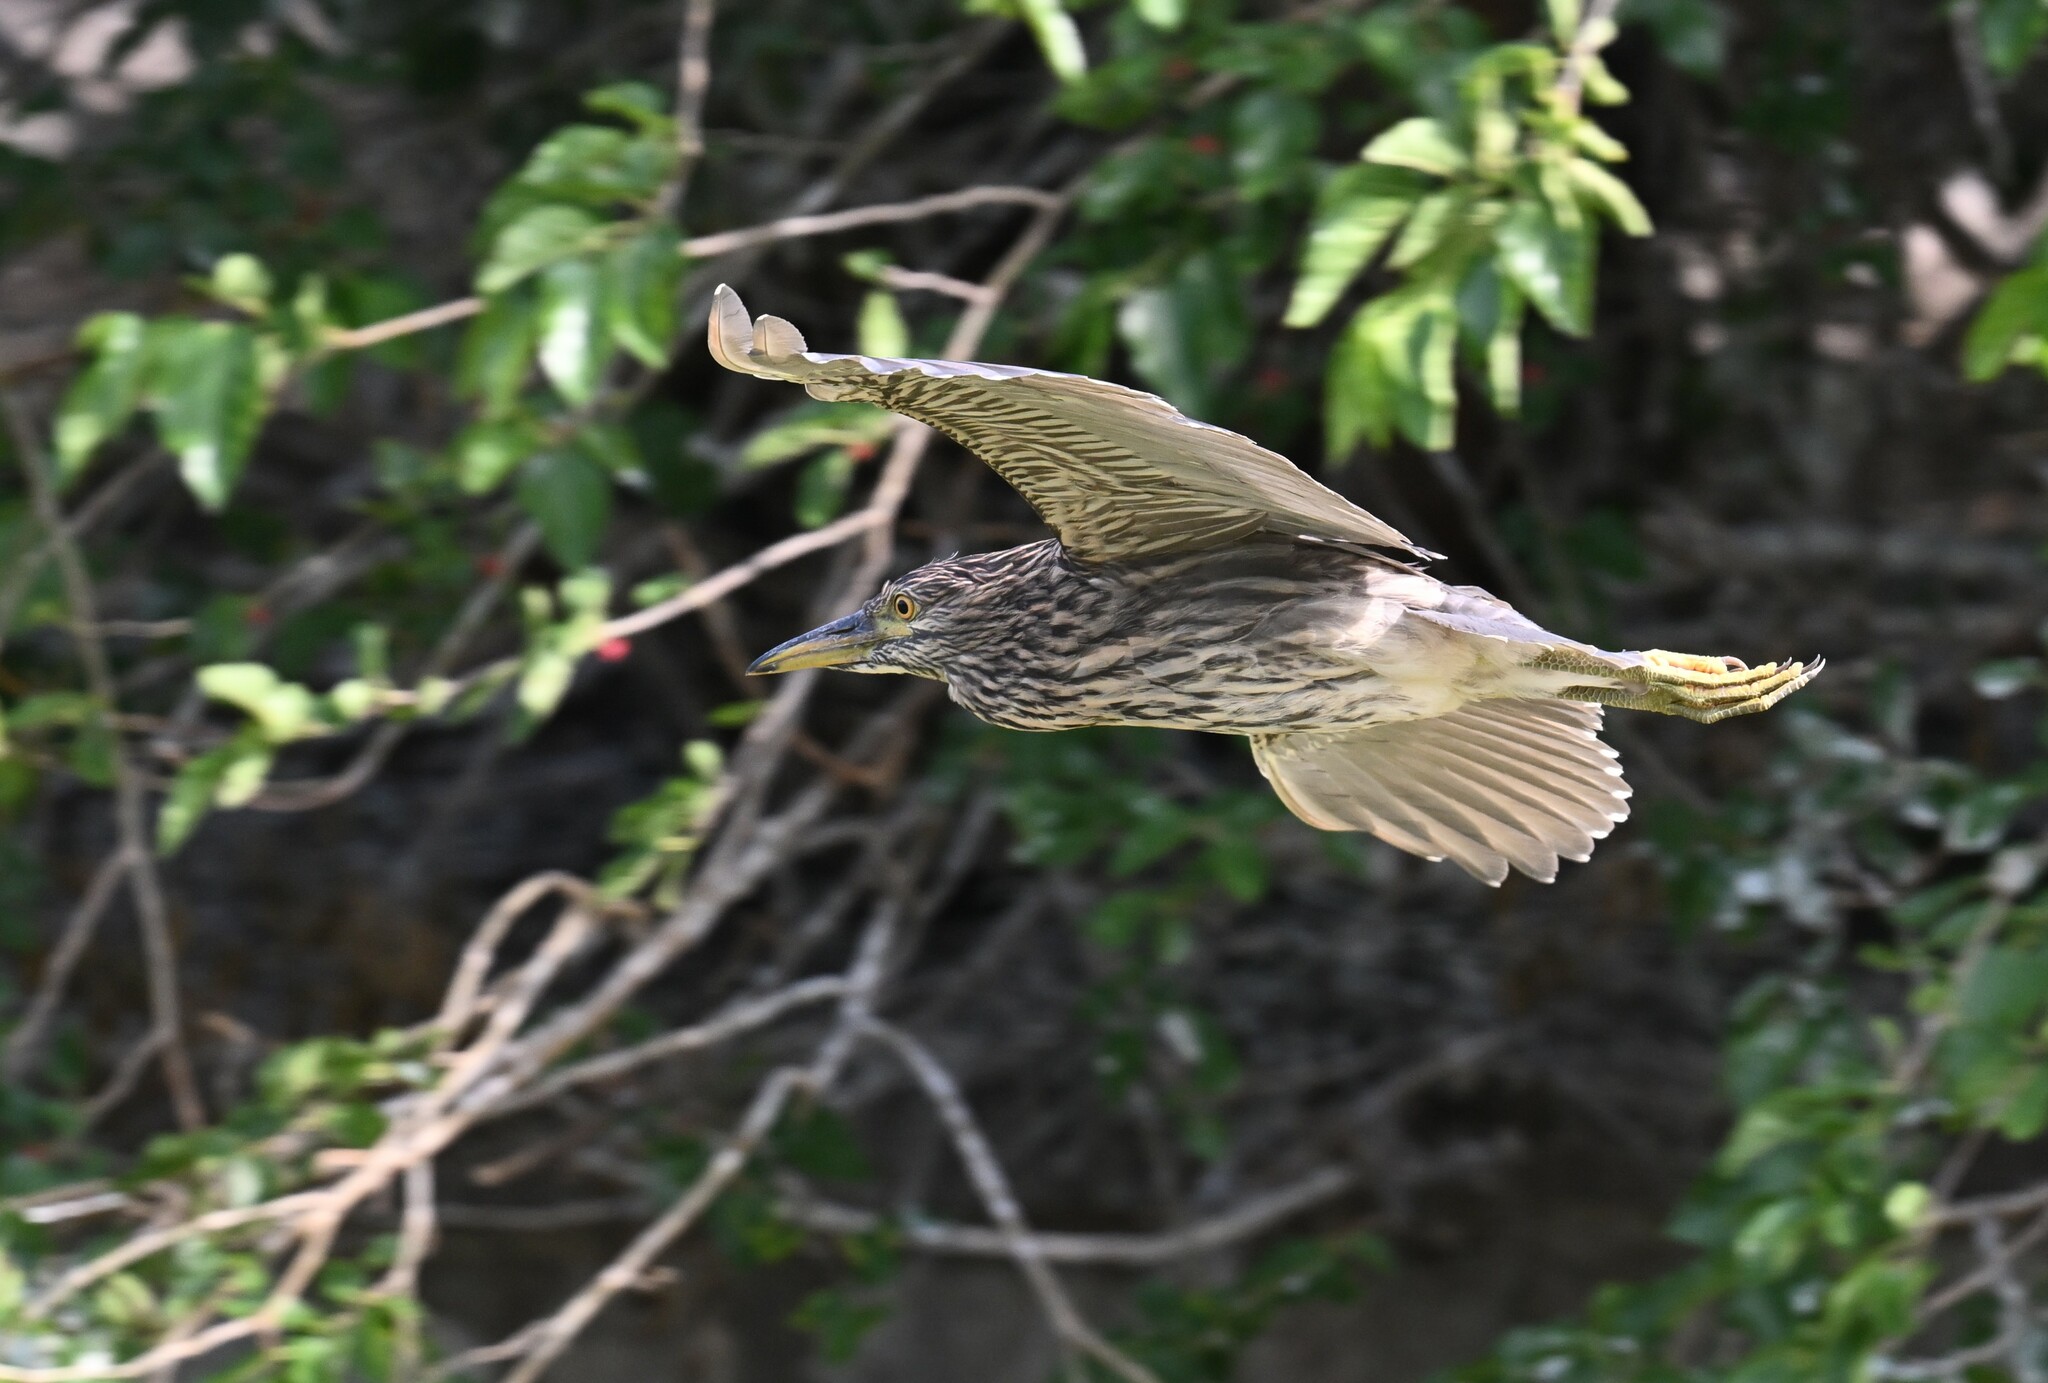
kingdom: Animalia
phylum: Chordata
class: Aves
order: Pelecaniformes
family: Ardeidae
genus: Nycticorax
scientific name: Nycticorax nycticorax
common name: Black-crowned night heron
